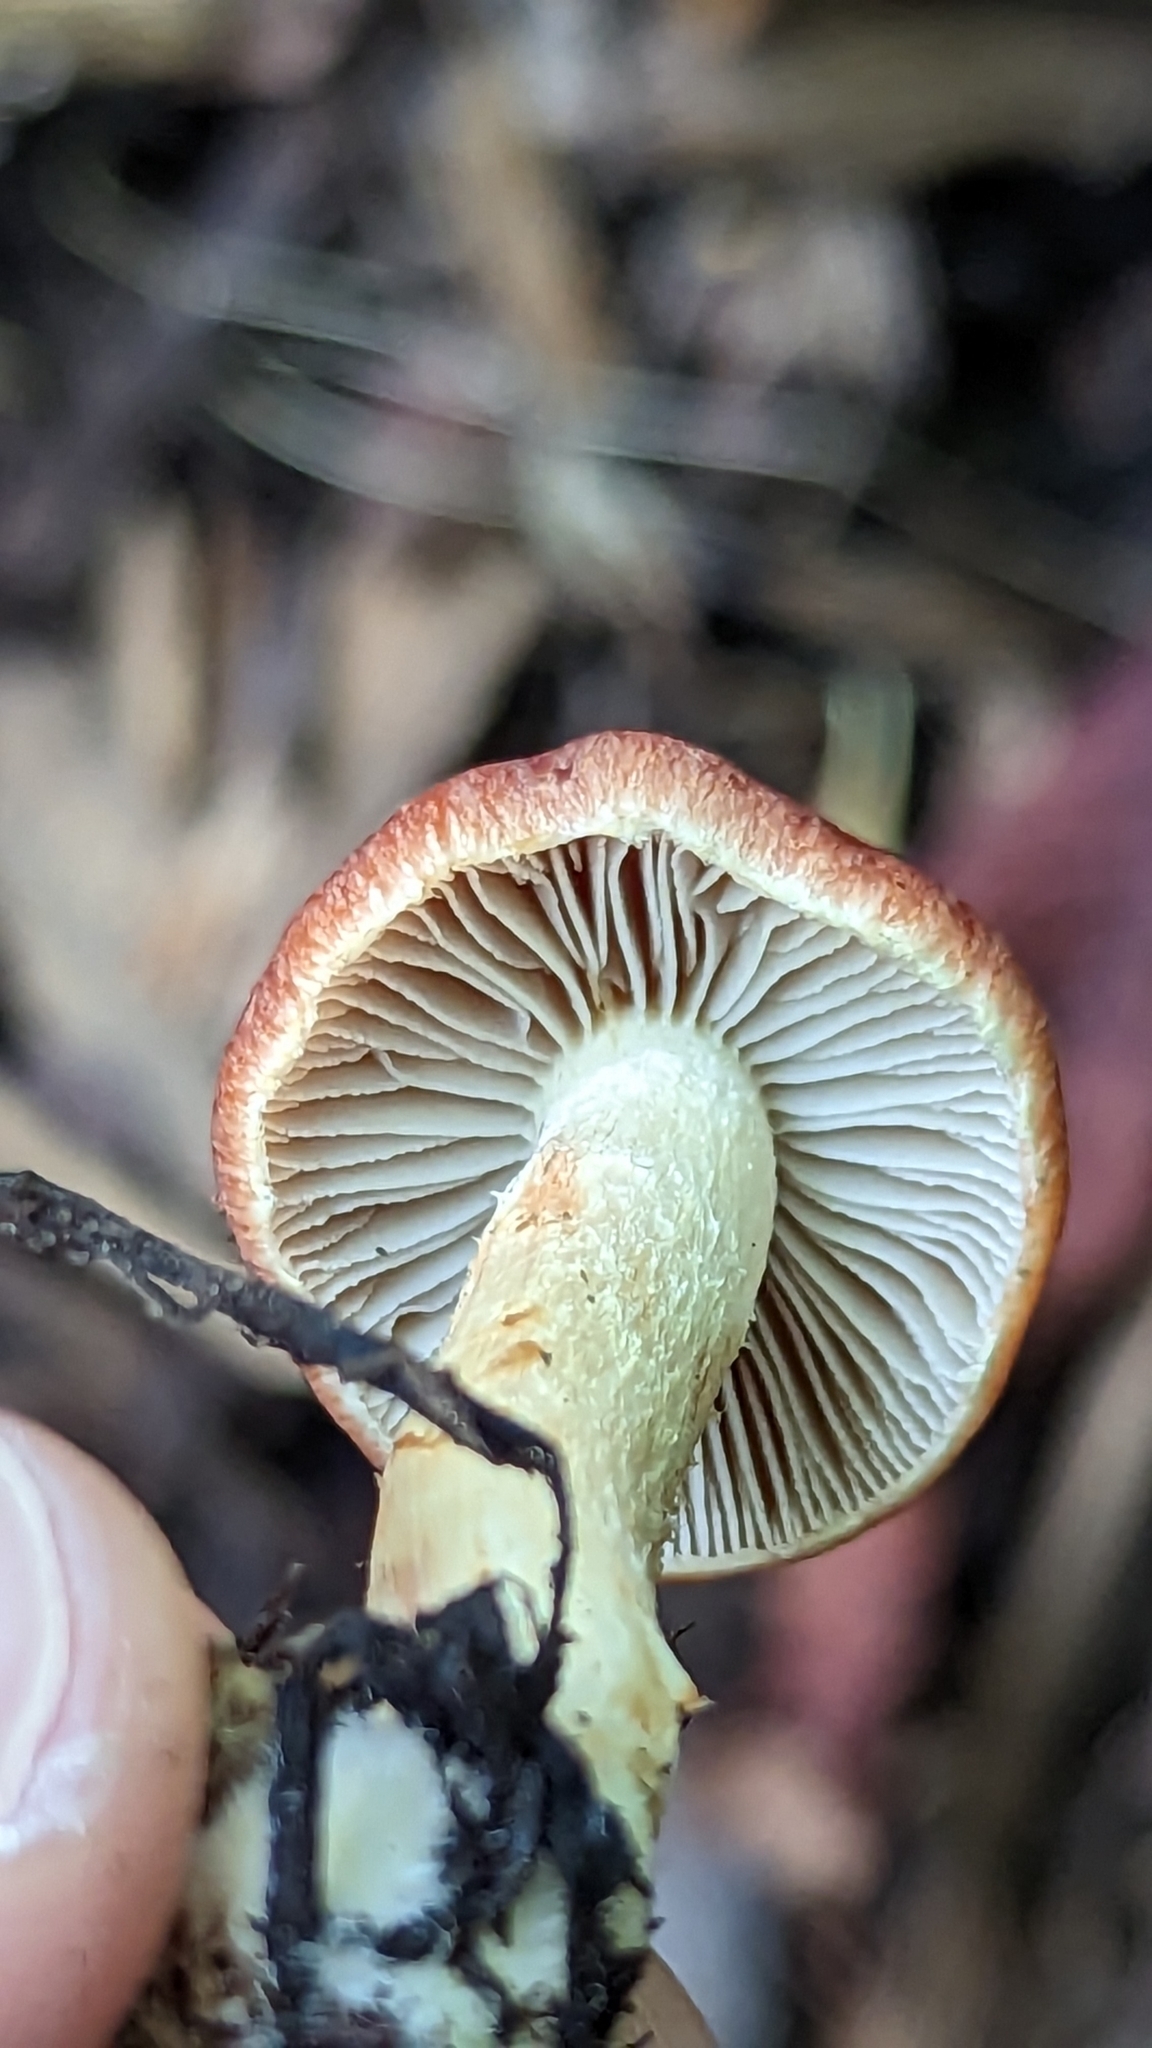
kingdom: Fungi
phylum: Basidiomycota
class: Agaricomycetes
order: Agaricales
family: Strophariaceae
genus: Leratiomyces
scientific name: Leratiomyces ceres
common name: Redlead roundhead
